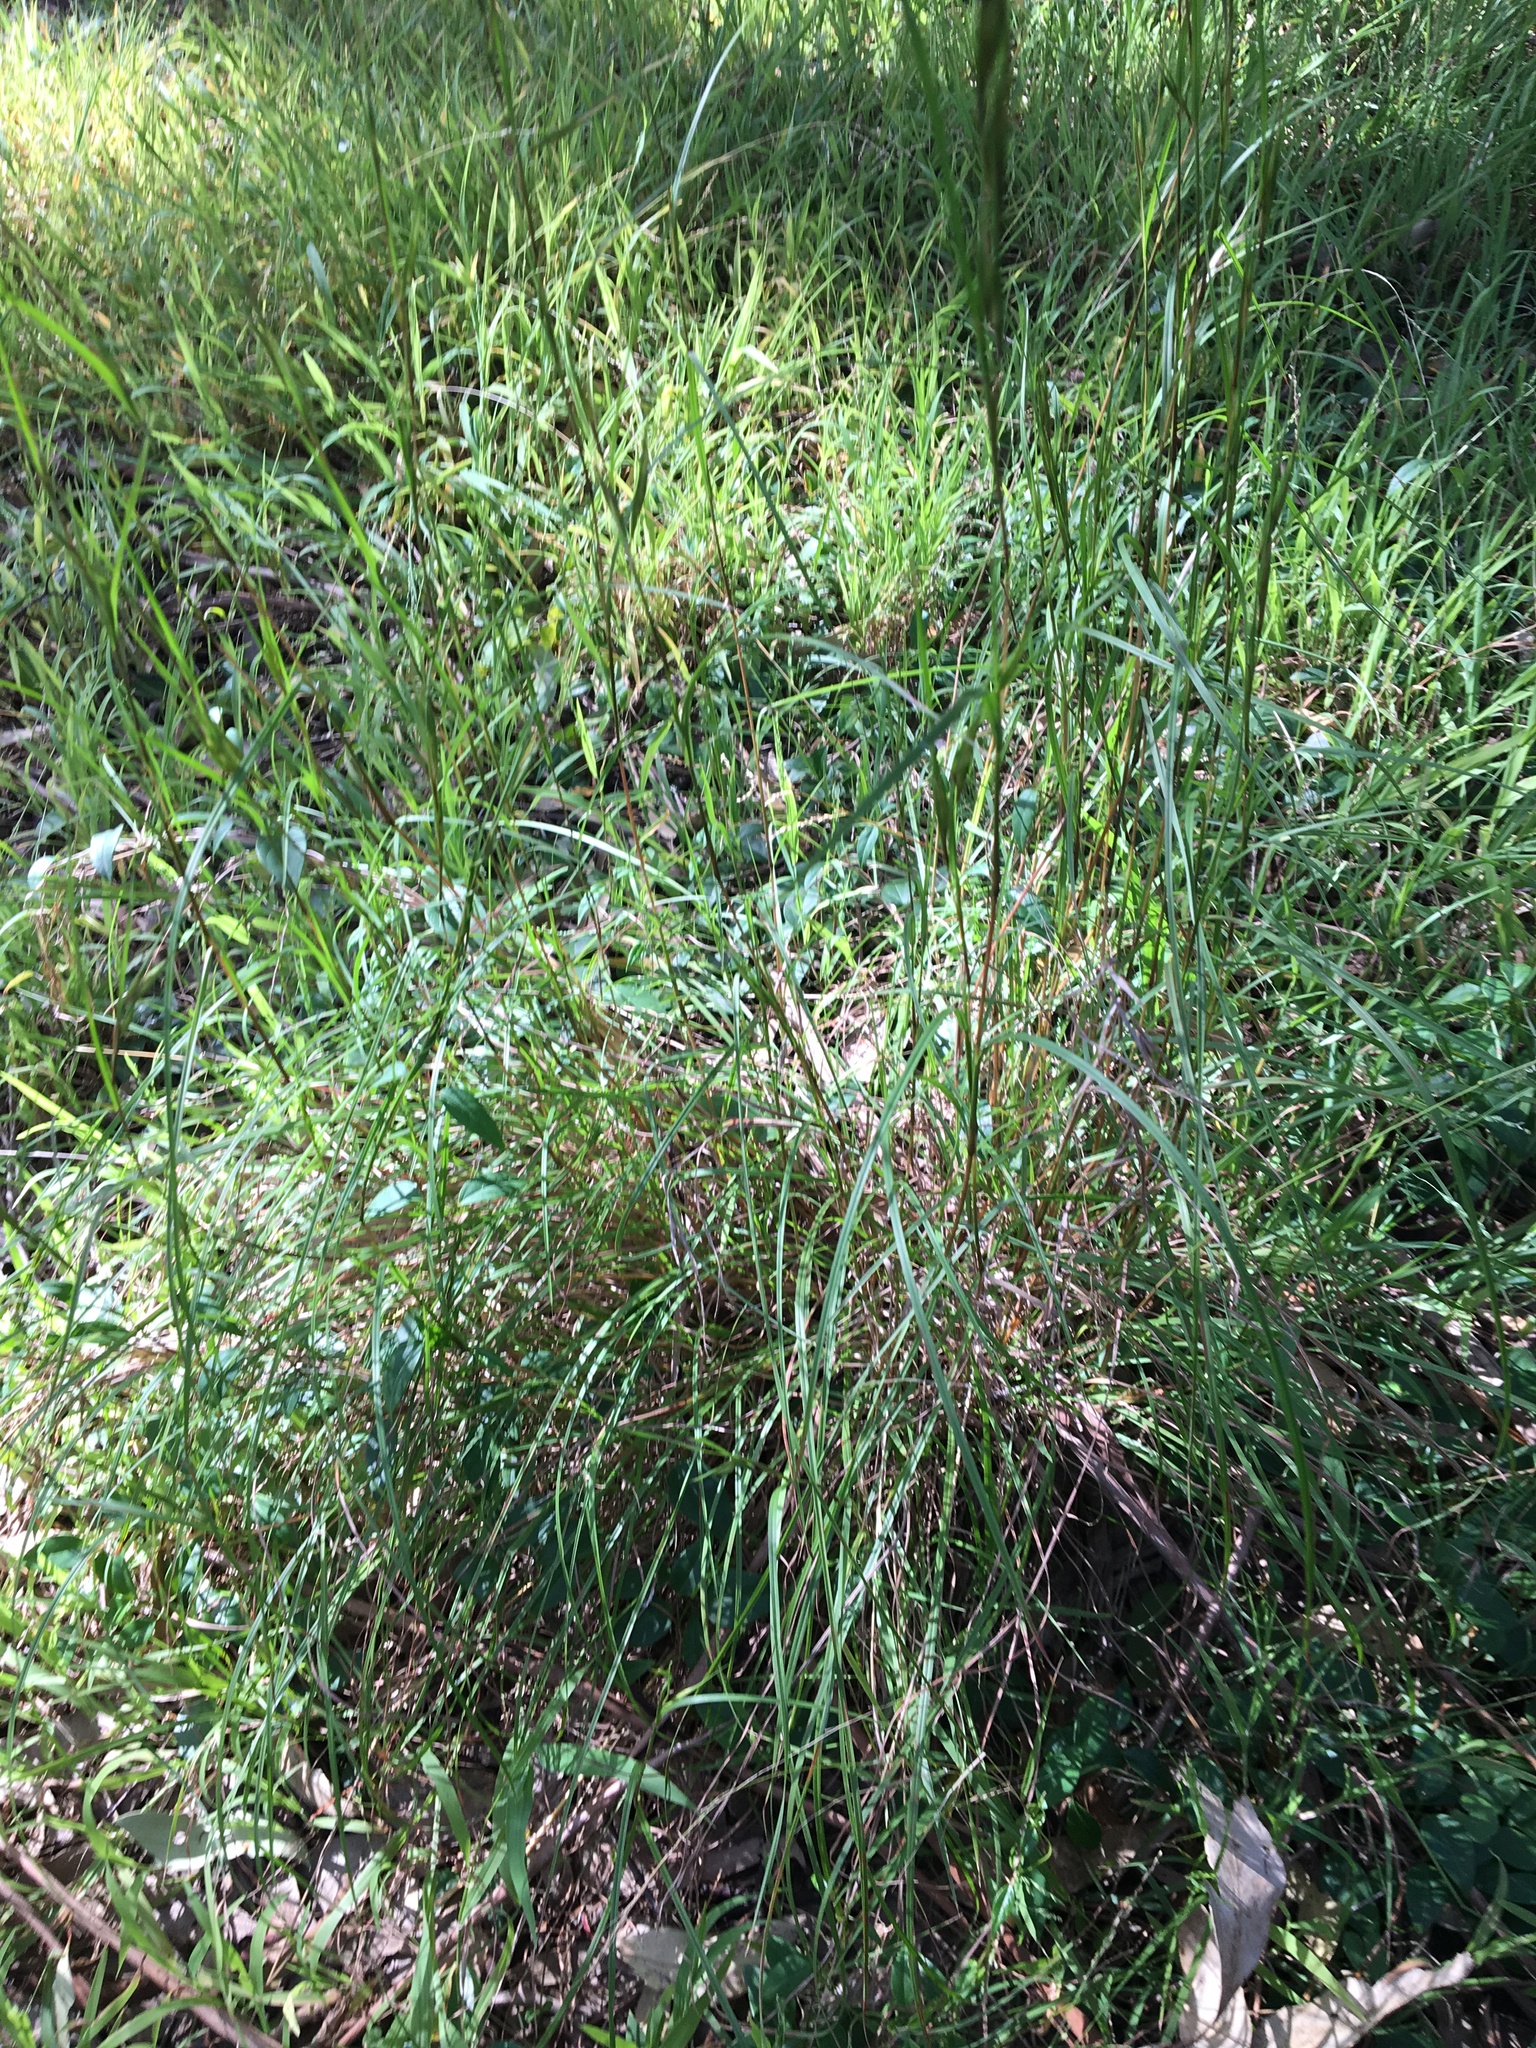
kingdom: Plantae
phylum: Tracheophyta
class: Liliopsida
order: Poales
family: Poaceae
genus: Themeda
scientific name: Themeda triandra
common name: Kangaroo grass
